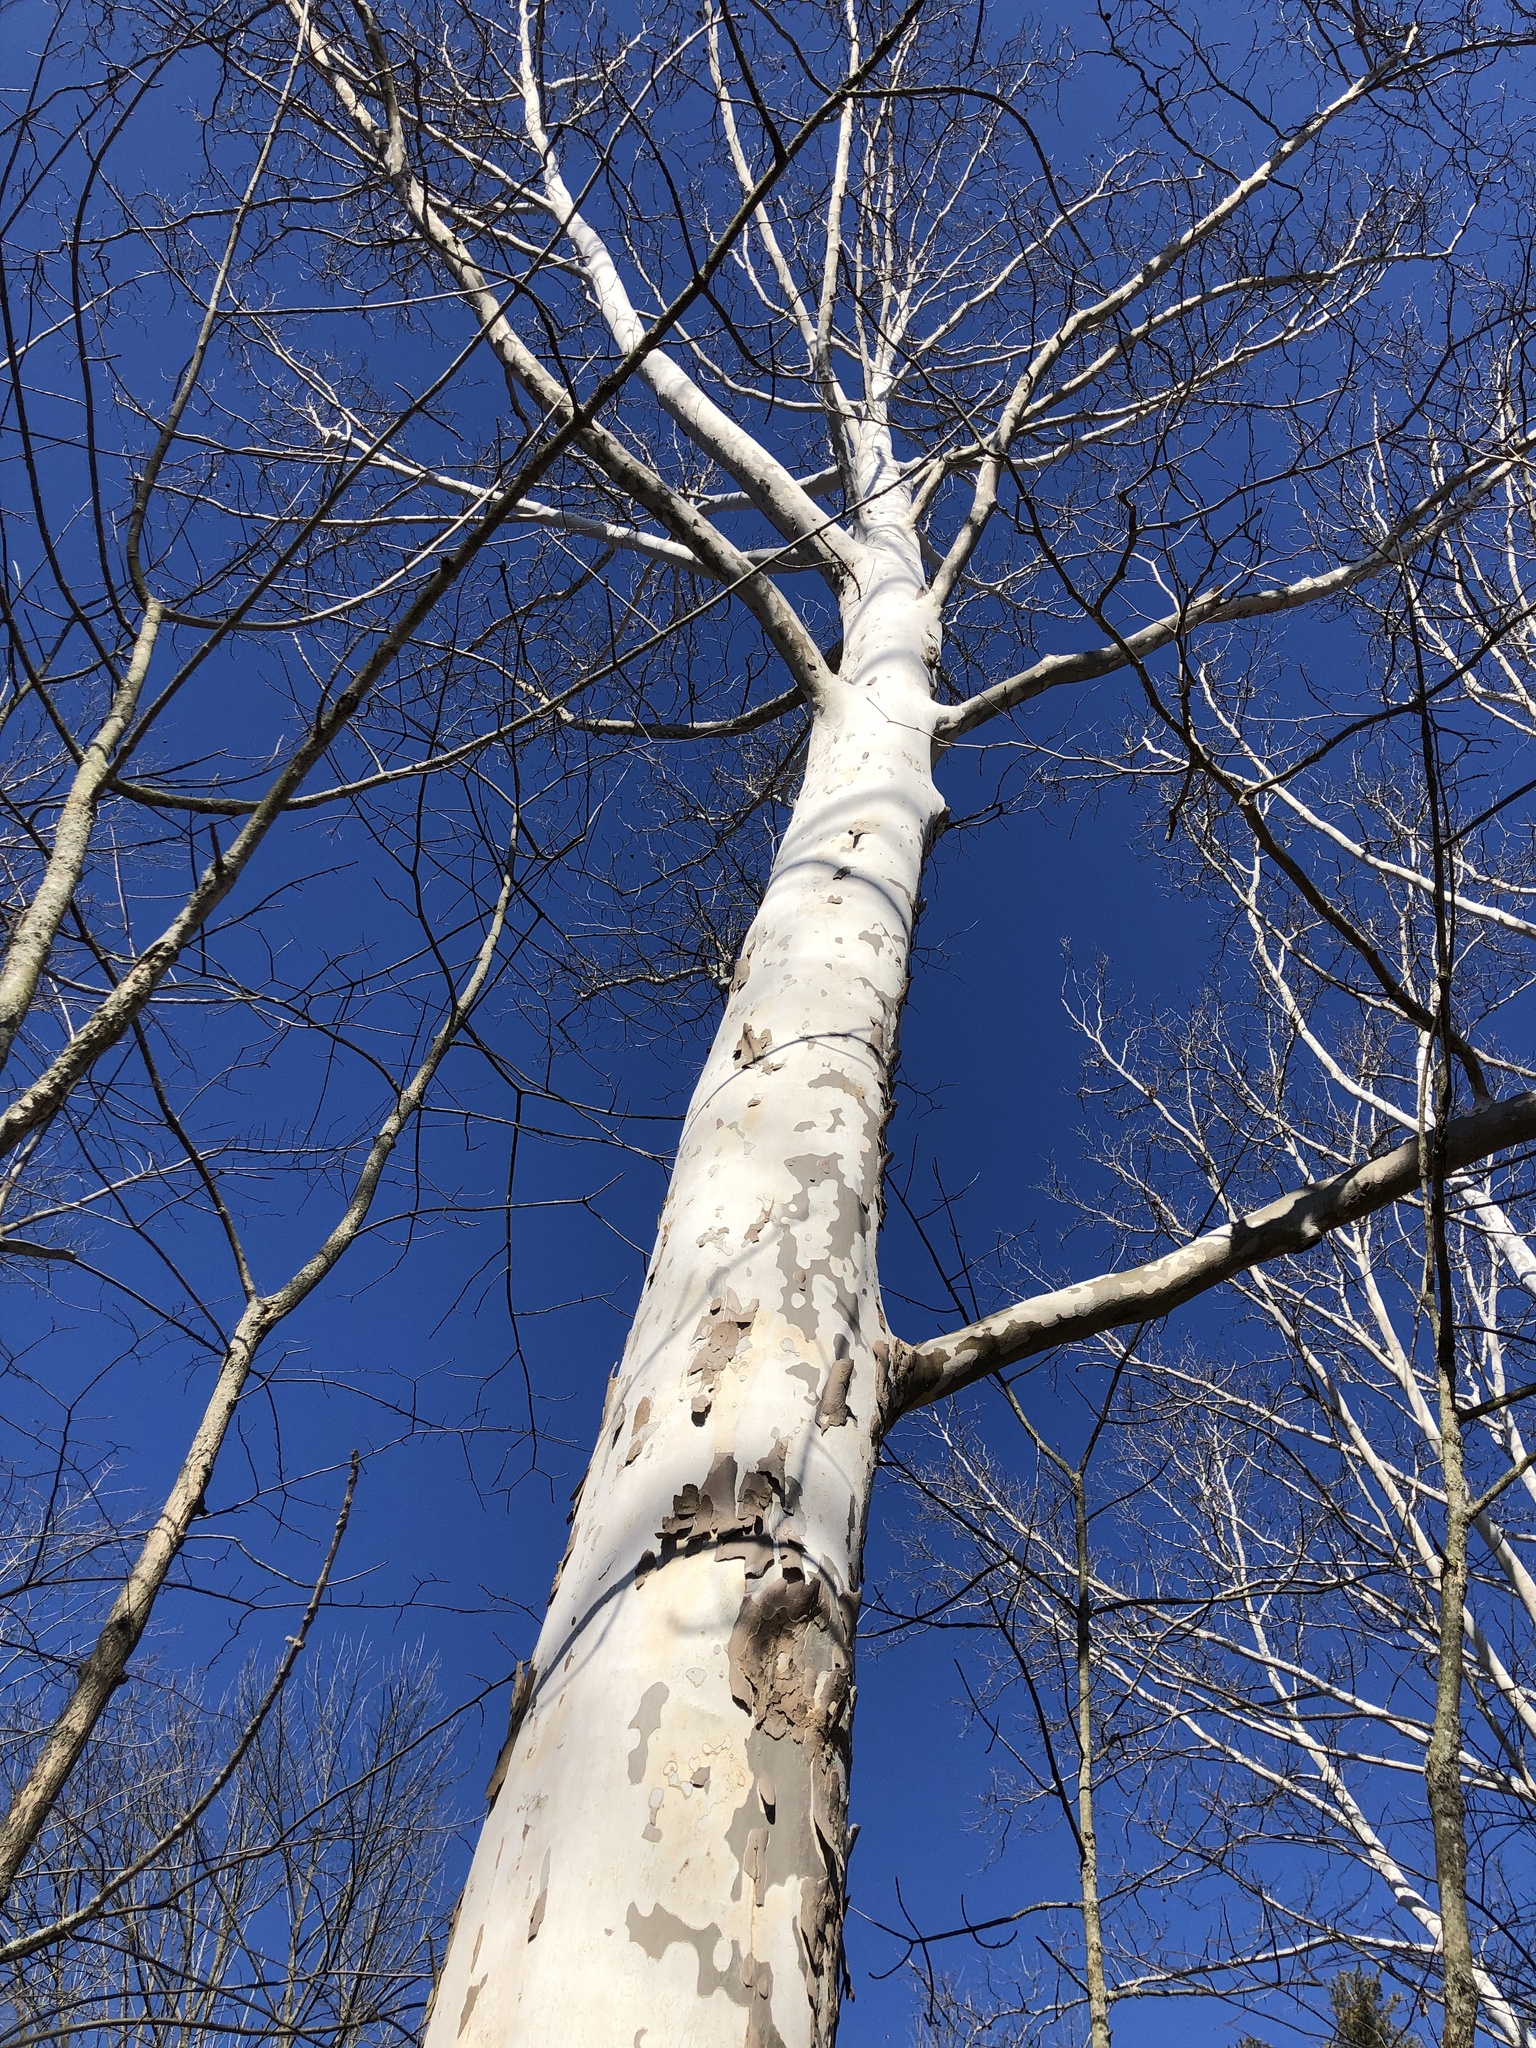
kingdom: Plantae
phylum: Tracheophyta
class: Magnoliopsida
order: Proteales
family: Platanaceae
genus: Platanus
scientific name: Platanus occidentalis
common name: American sycamore
